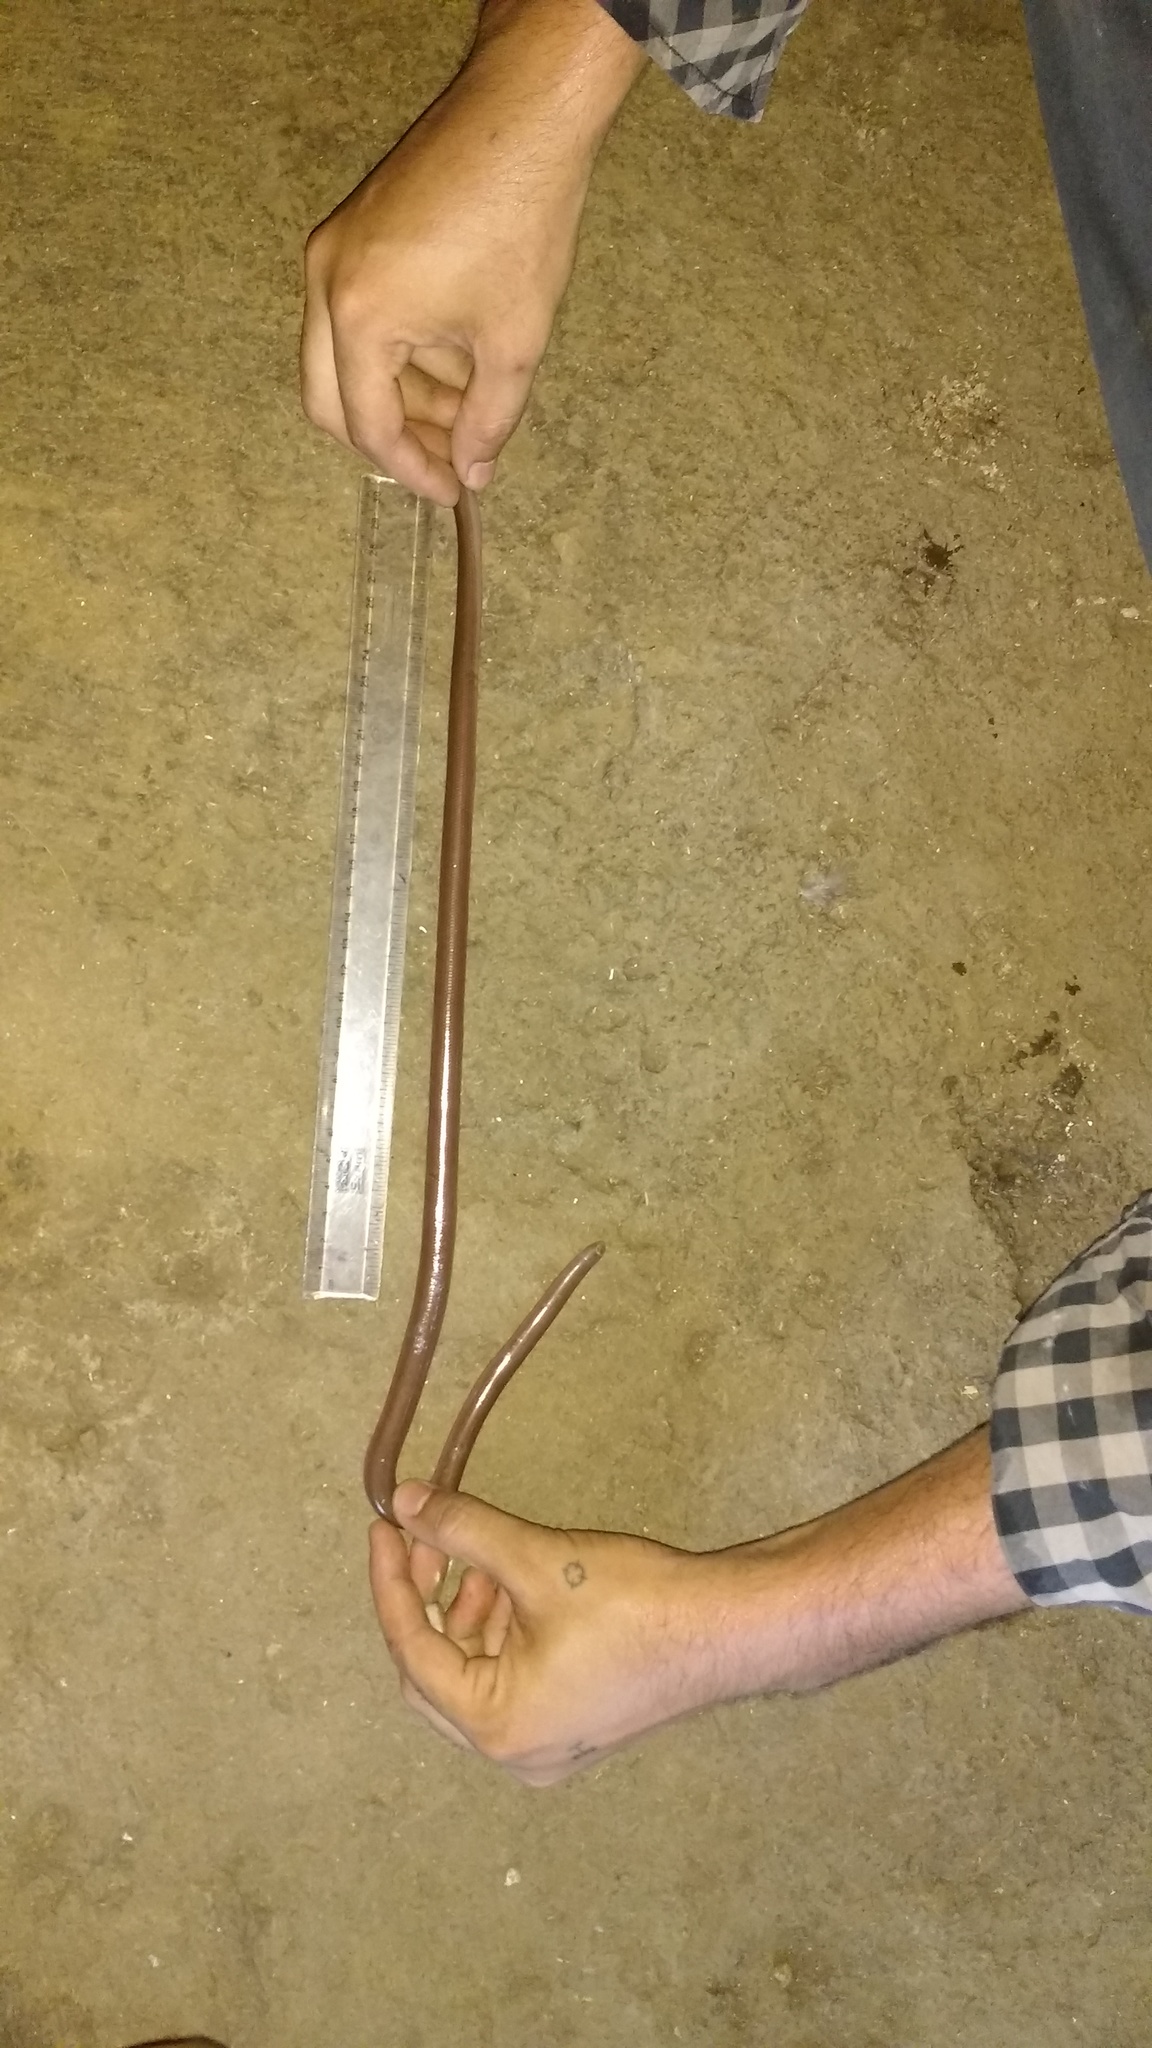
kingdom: Animalia
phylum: Chordata
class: Squamata
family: Typhlopidae
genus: Grypotyphlops
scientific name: Grypotyphlops acutus
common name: Beaked blind snake
